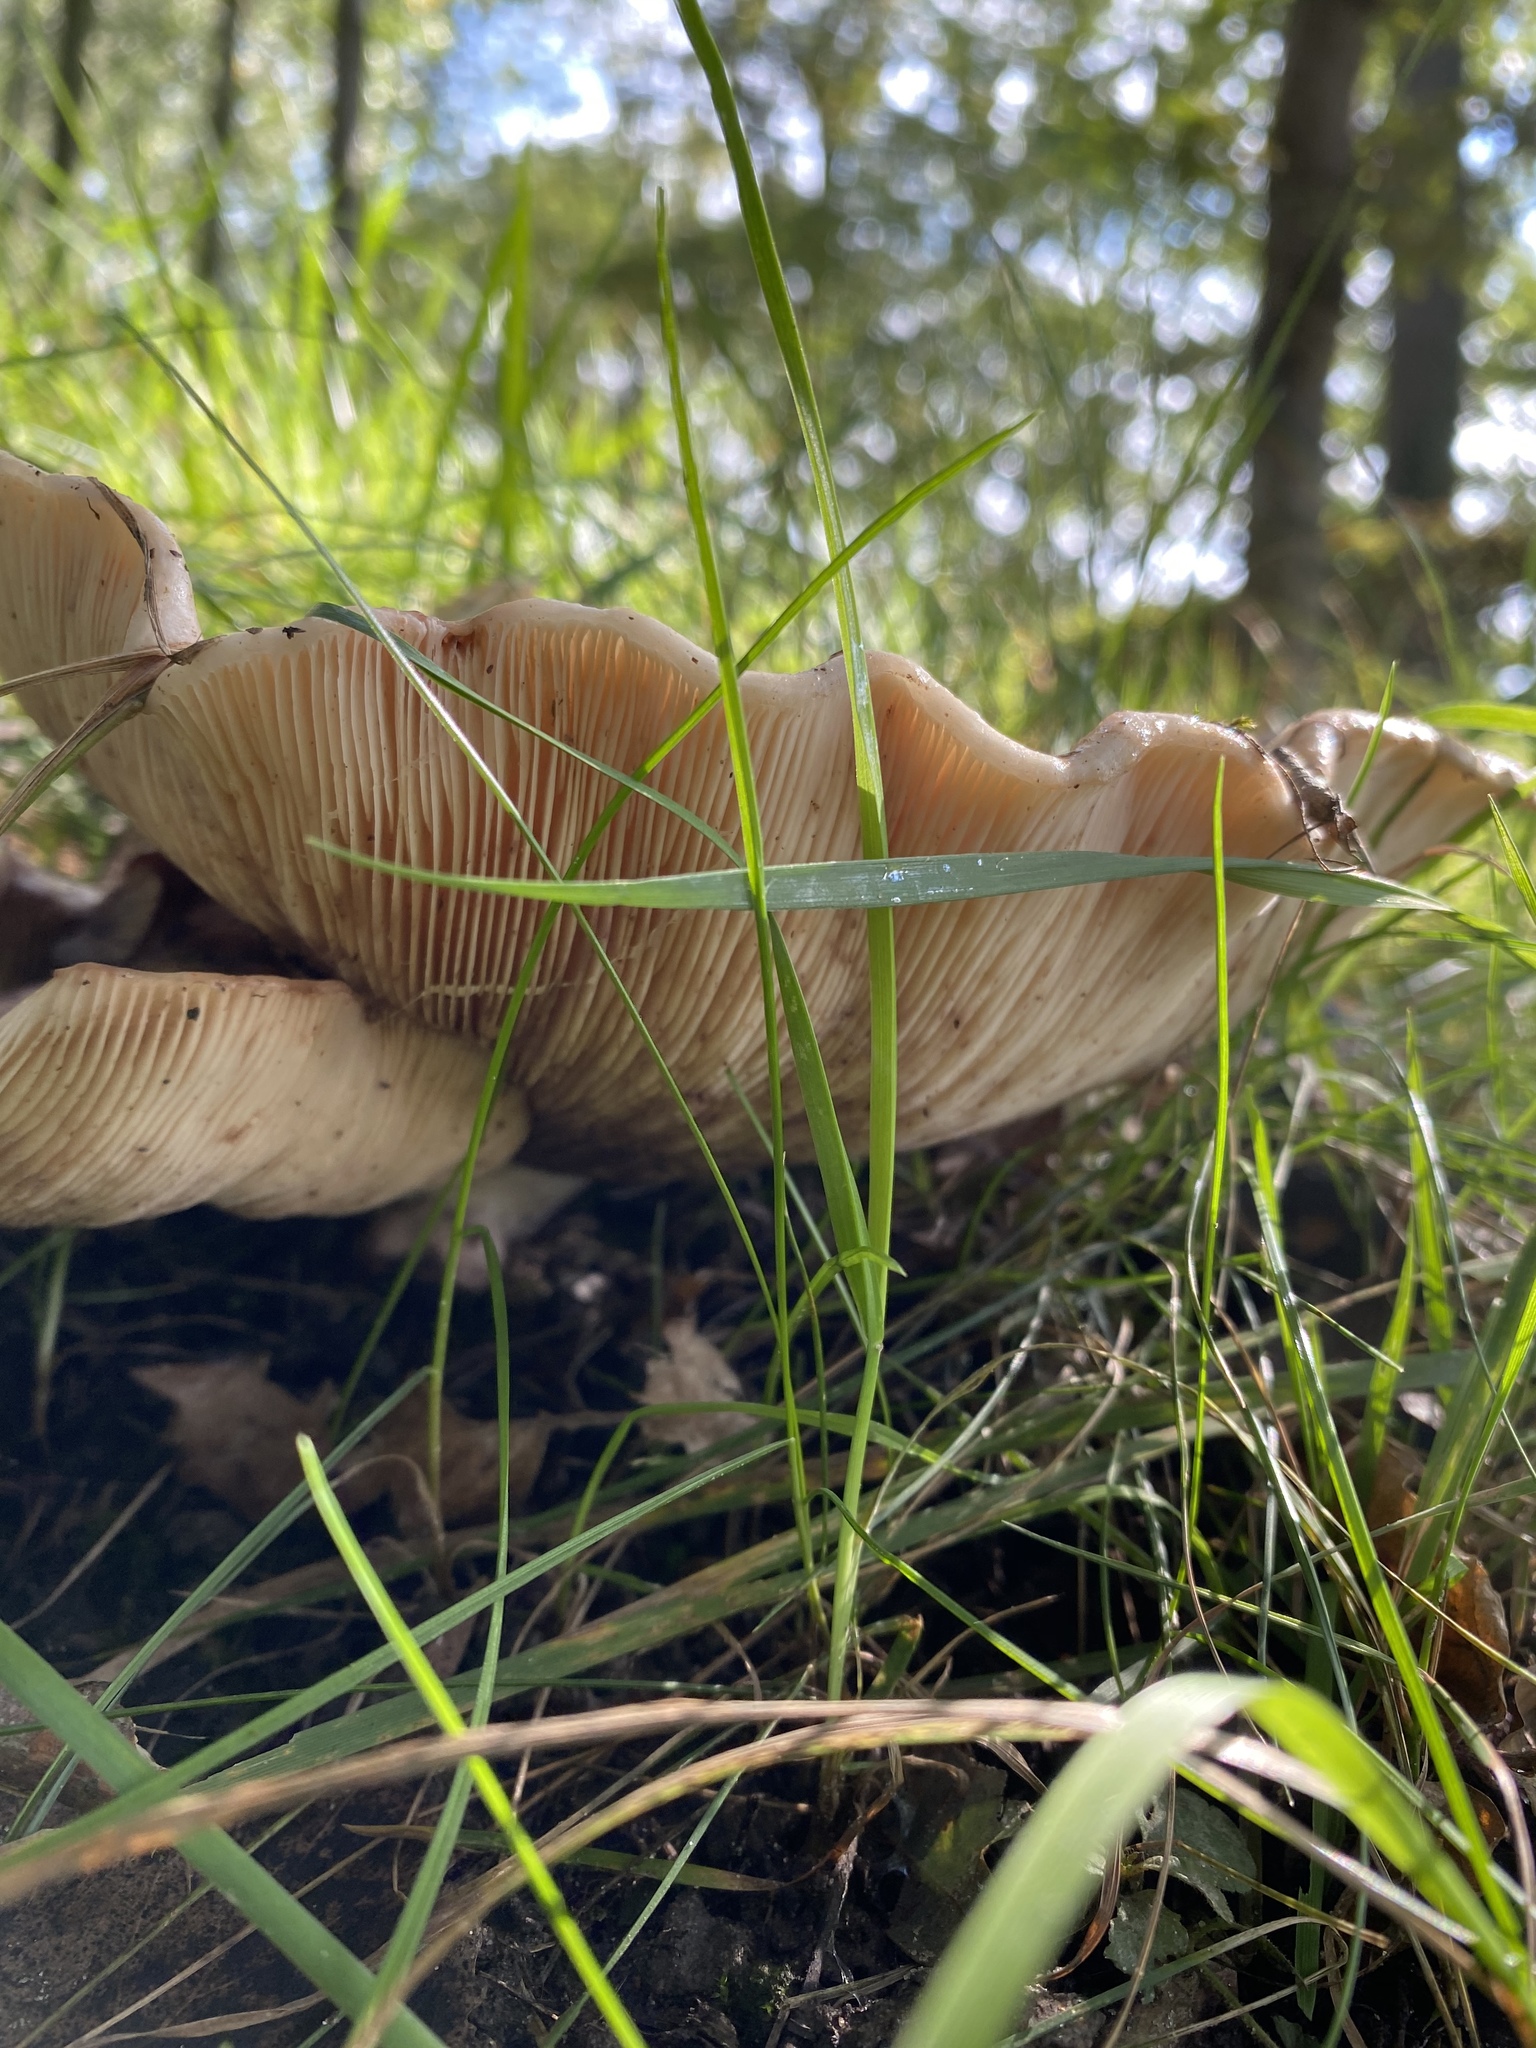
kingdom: Fungi
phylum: Basidiomycota
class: Agaricomycetes
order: Russulales
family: Russulaceae
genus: Lactarius
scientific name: Lactarius controversus
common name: Blushing milkcap
